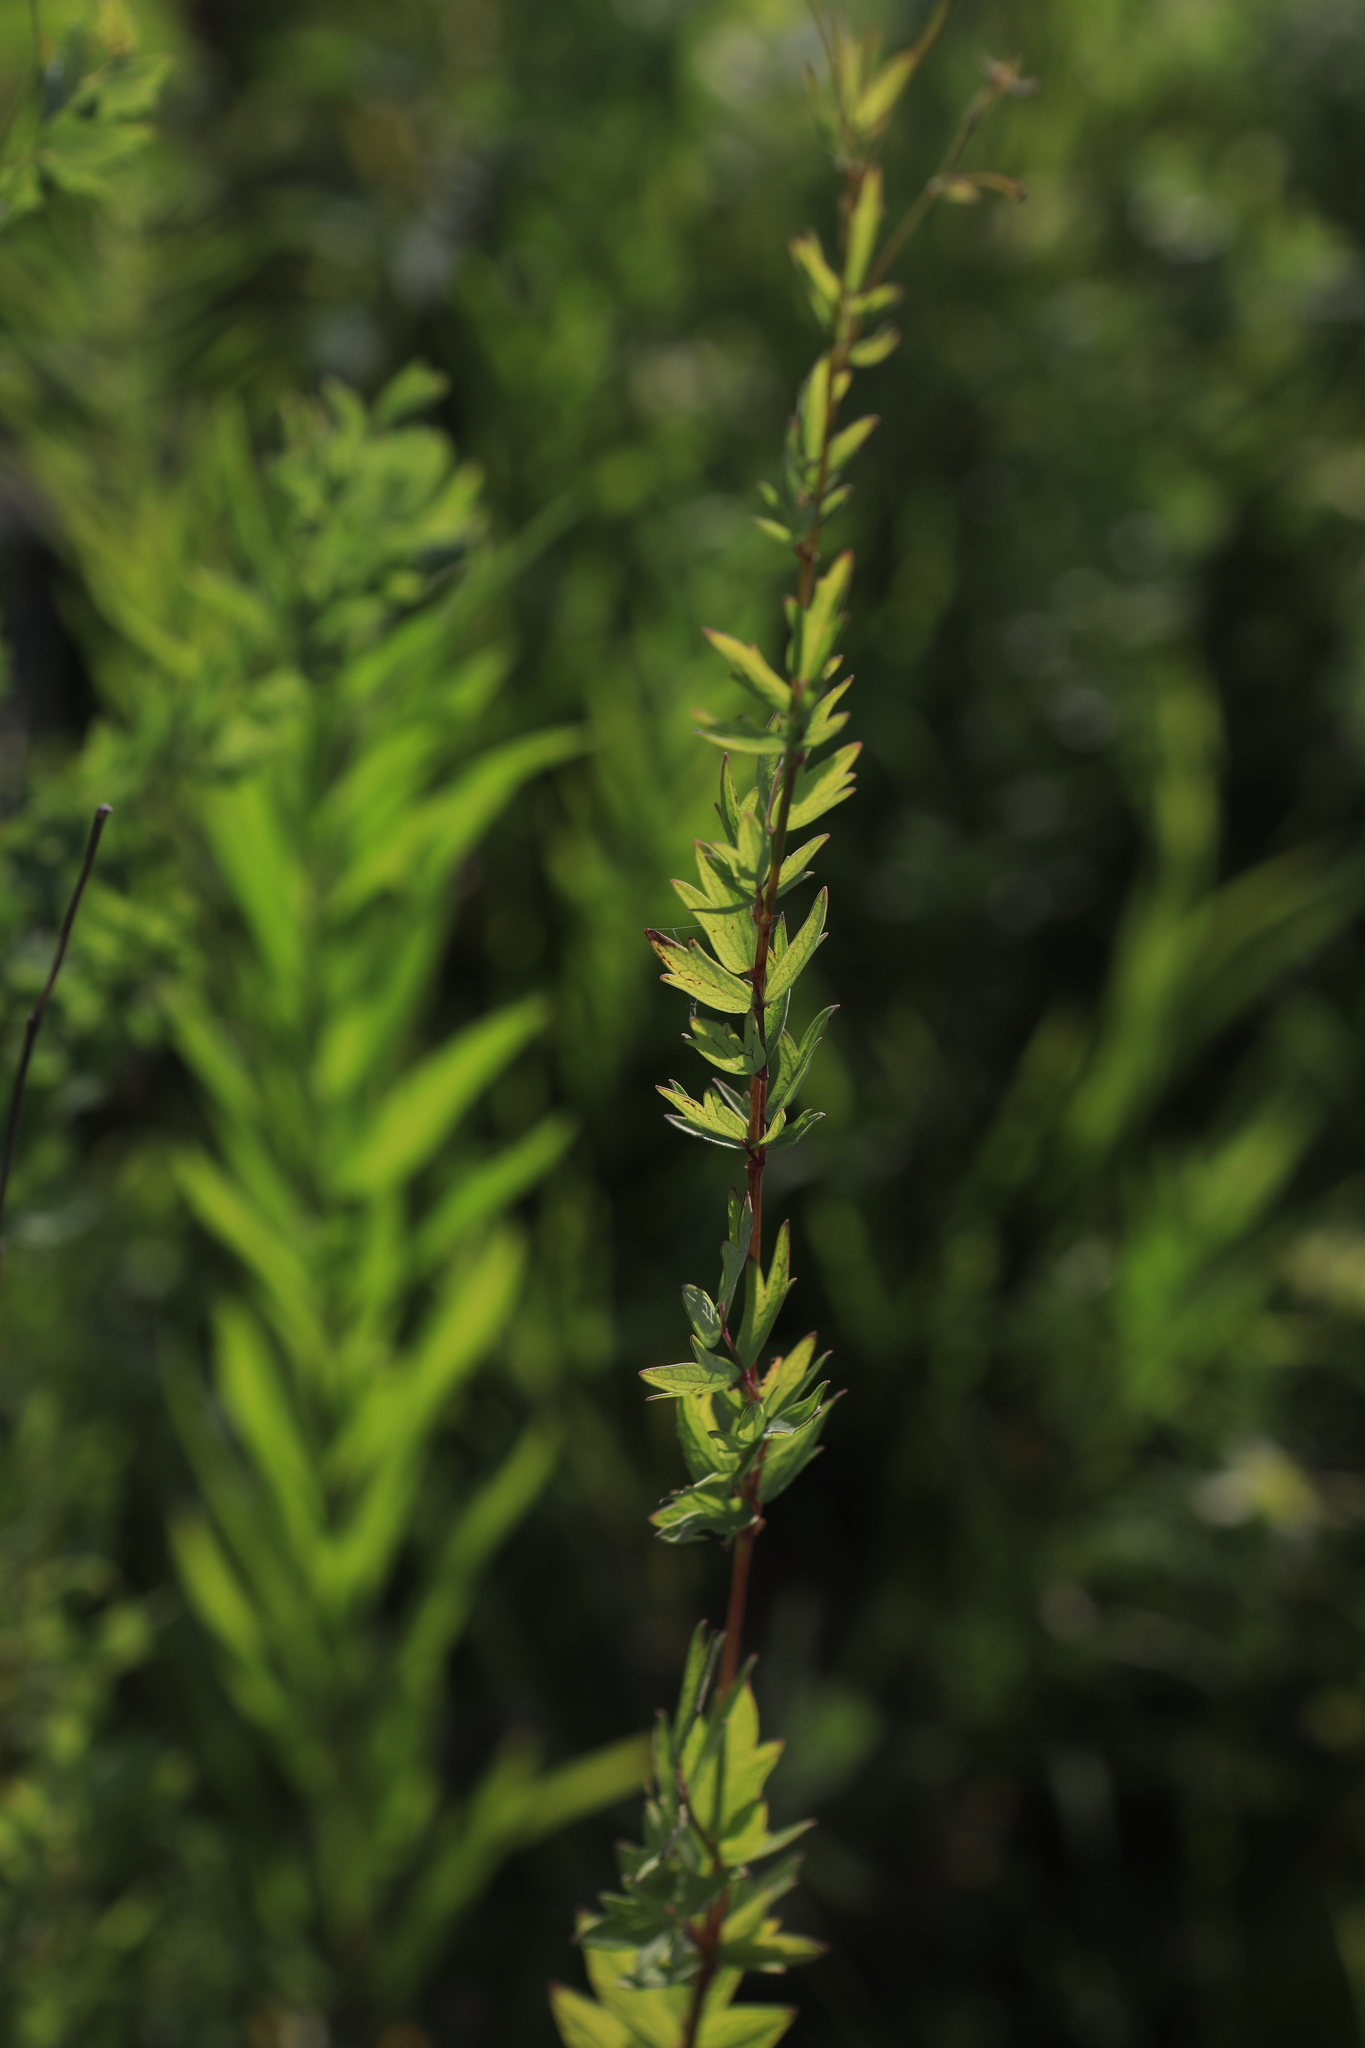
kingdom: Plantae
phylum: Tracheophyta
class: Magnoliopsida
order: Ranunculales
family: Ranunculaceae
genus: Thalictrum
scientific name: Thalictrum simplex
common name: Small meadow-rue
